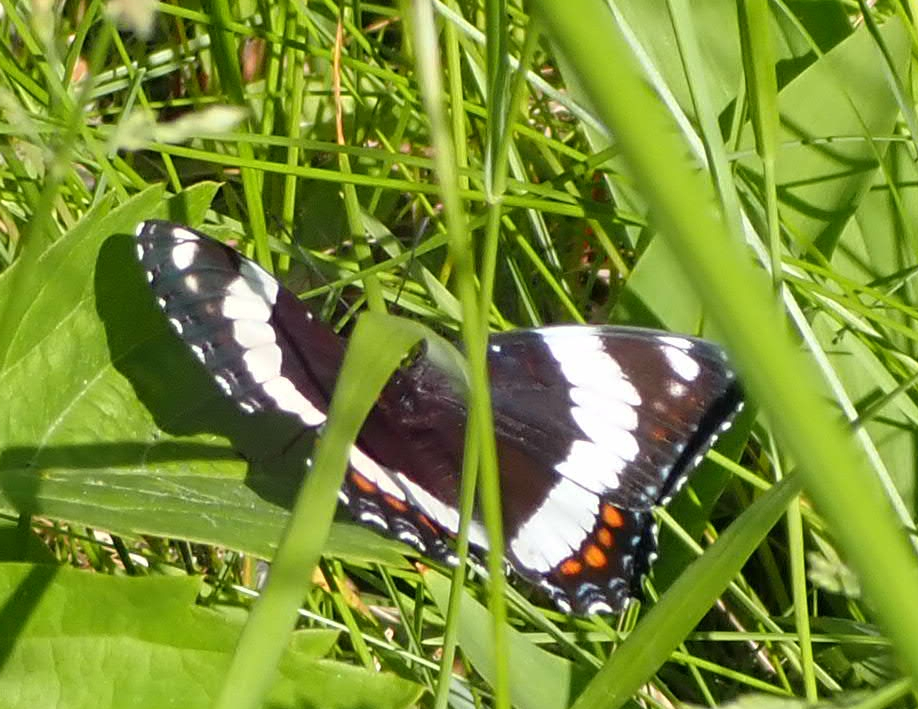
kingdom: Animalia
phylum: Arthropoda
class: Insecta
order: Lepidoptera
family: Nymphalidae
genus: Limenitis
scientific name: Limenitis arthemis
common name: Red-spotted admiral
